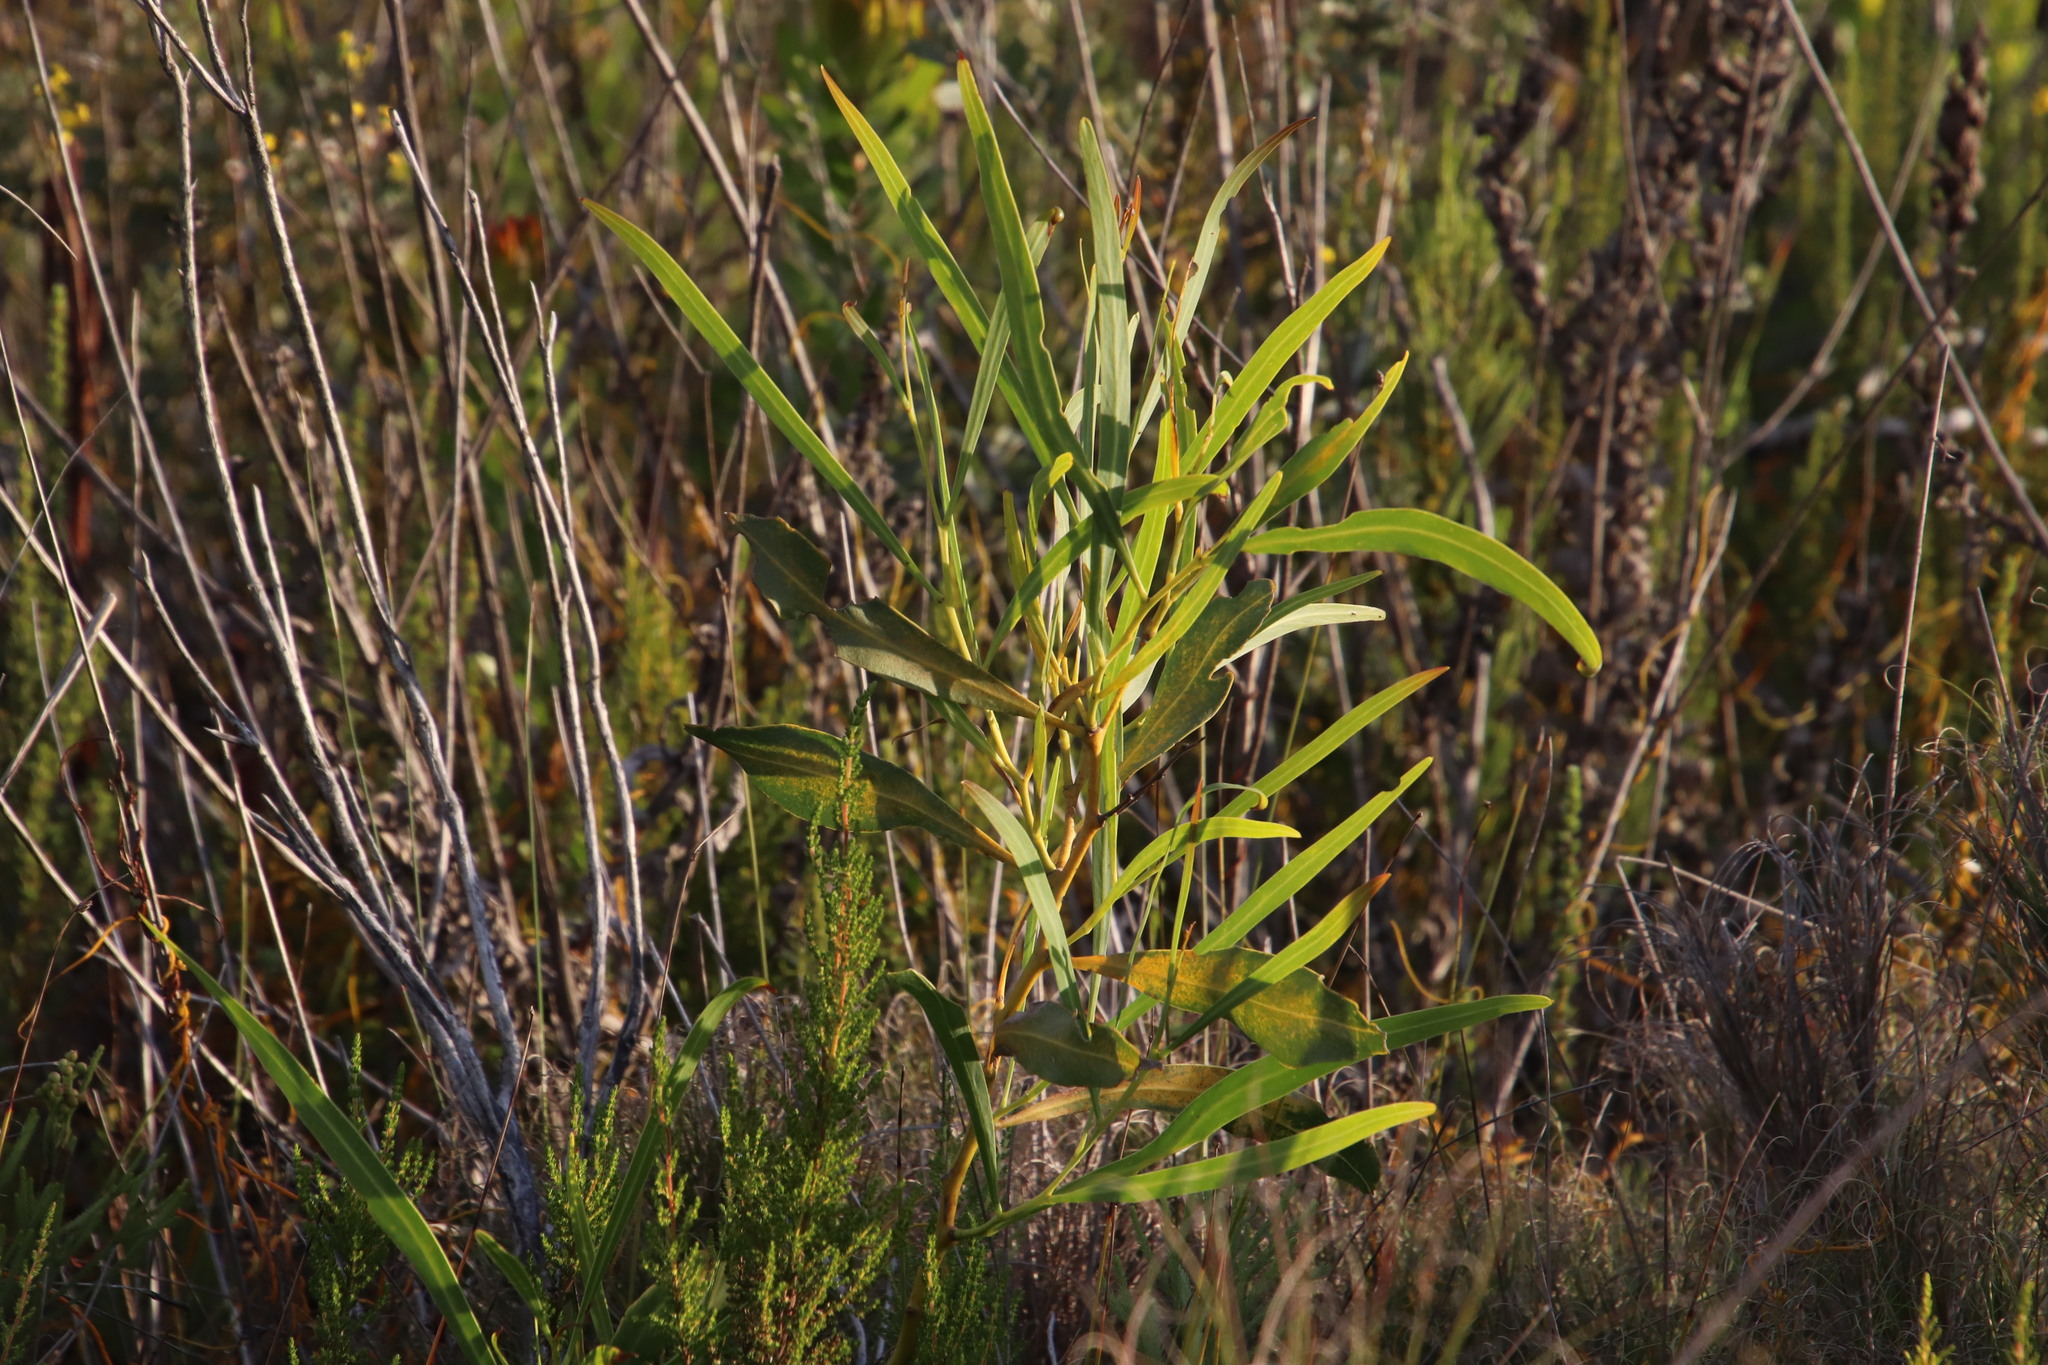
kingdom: Plantae
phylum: Tracheophyta
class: Magnoliopsida
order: Fabales
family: Fabaceae
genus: Acacia
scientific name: Acacia saligna
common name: Orange wattle
